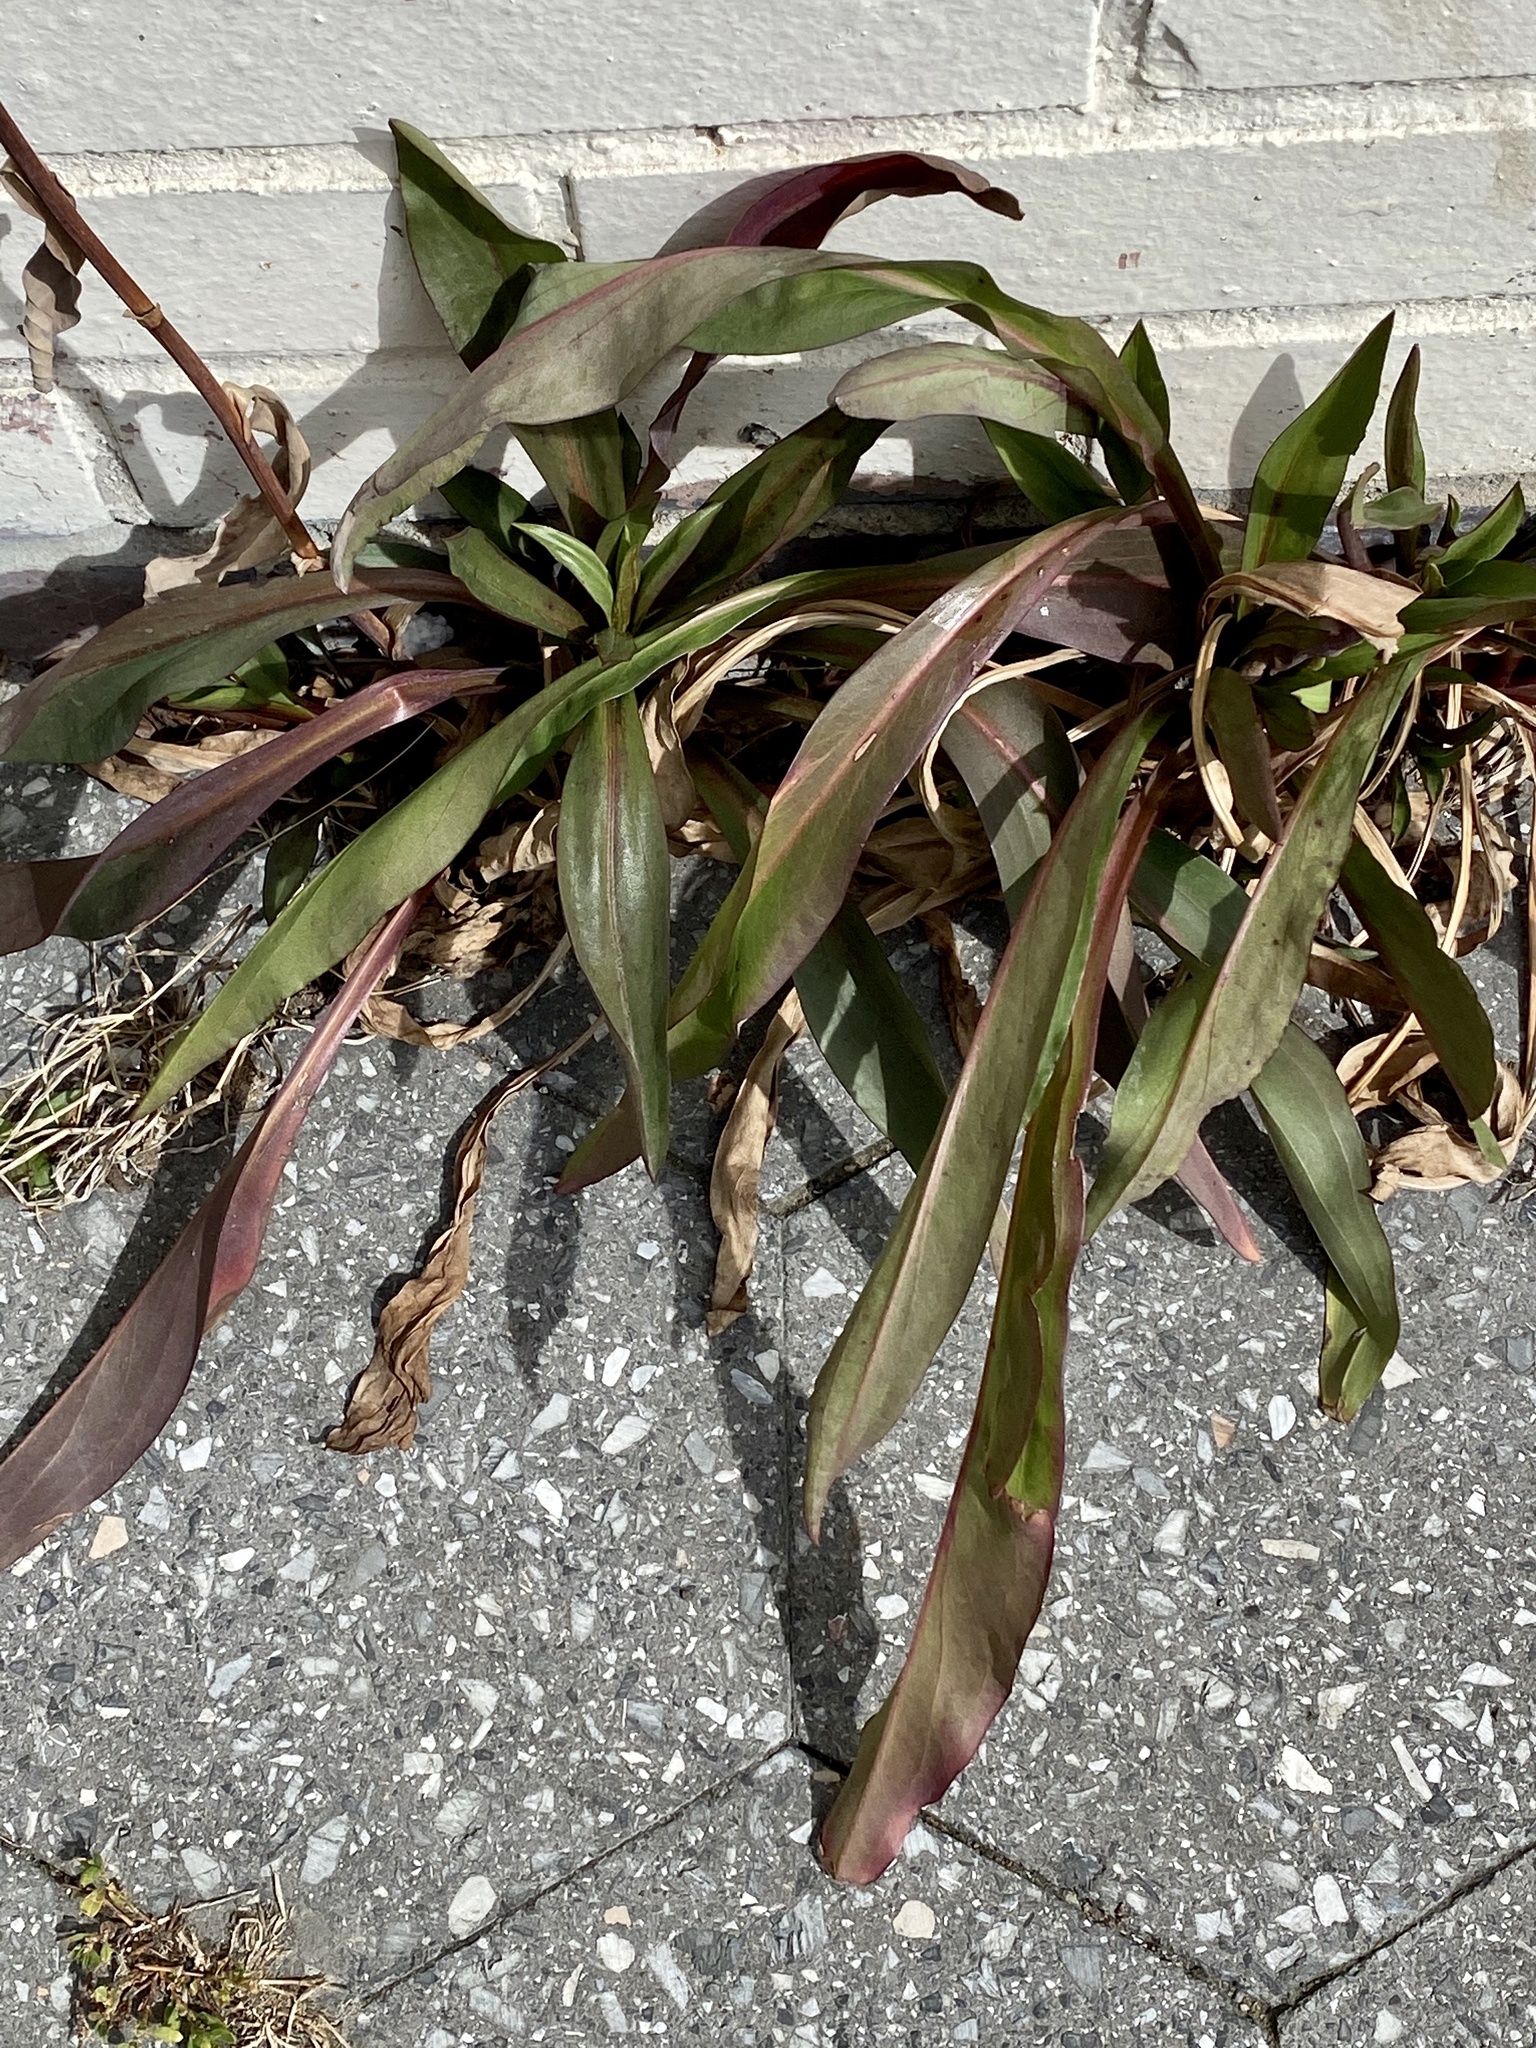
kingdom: Plantae
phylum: Tracheophyta
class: Magnoliopsida
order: Asterales
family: Asteraceae
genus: Solidago
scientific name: Solidago sempervirens
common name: Salt-marsh goldenrod
